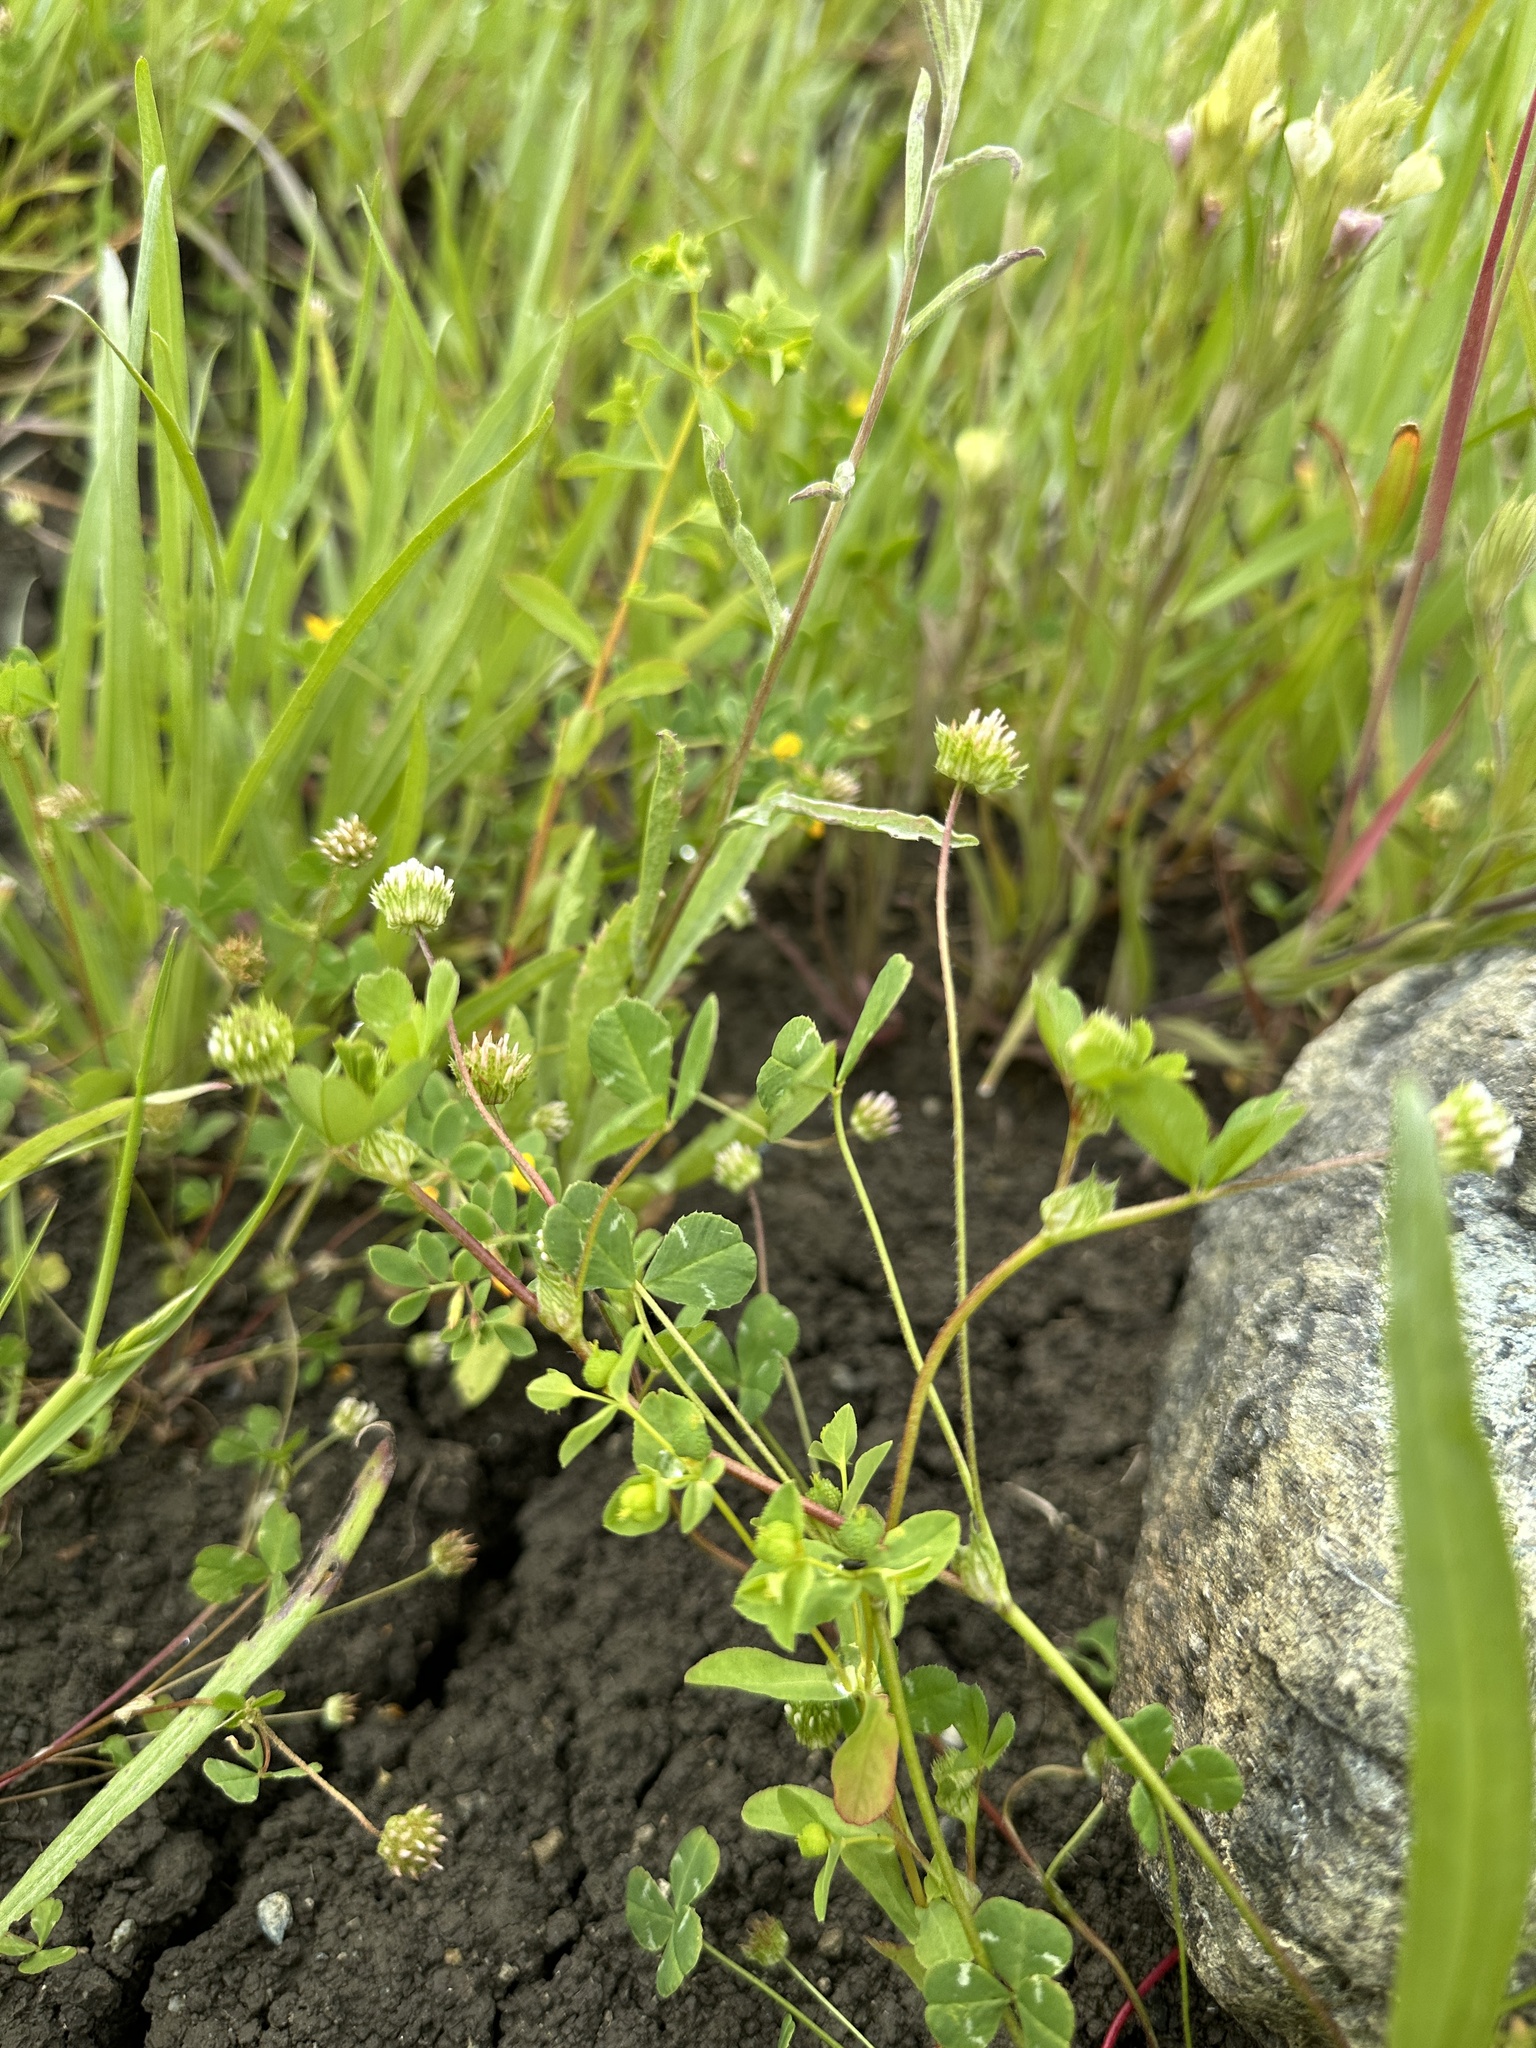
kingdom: Plantae
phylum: Tracheophyta
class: Magnoliopsida
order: Fabales
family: Fabaceae
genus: Trifolium
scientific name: Trifolium microdon
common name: Thimble clover
